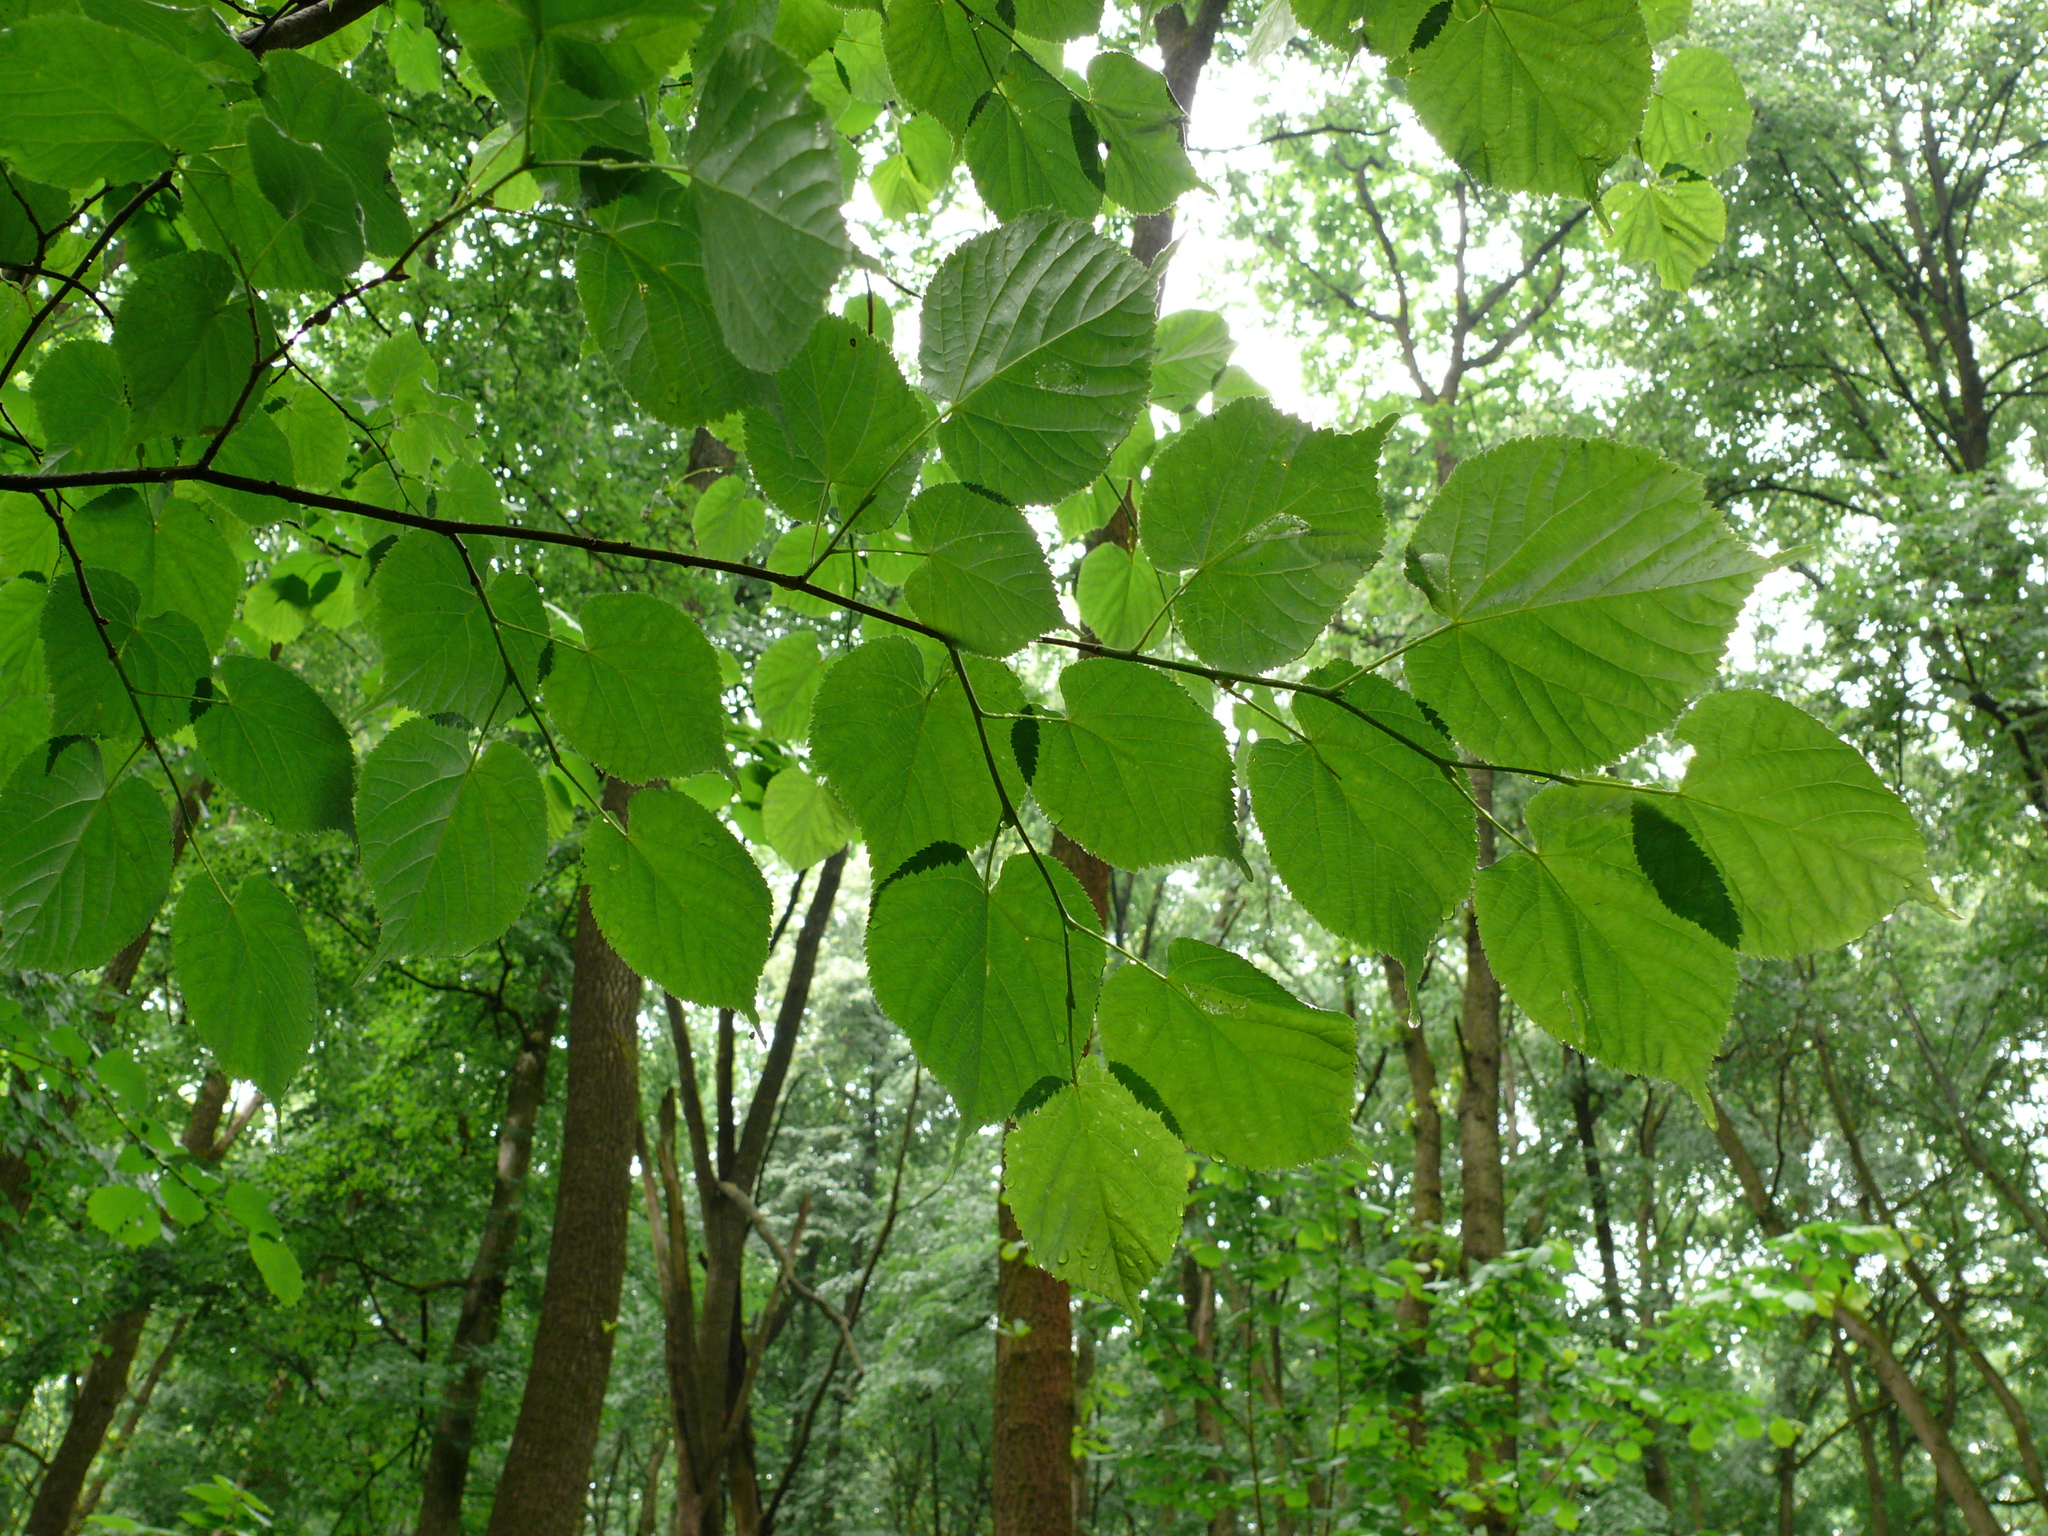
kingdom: Plantae
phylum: Tracheophyta
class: Magnoliopsida
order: Malvales
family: Malvaceae
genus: Tilia
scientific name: Tilia cordata
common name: Small-leaved lime
